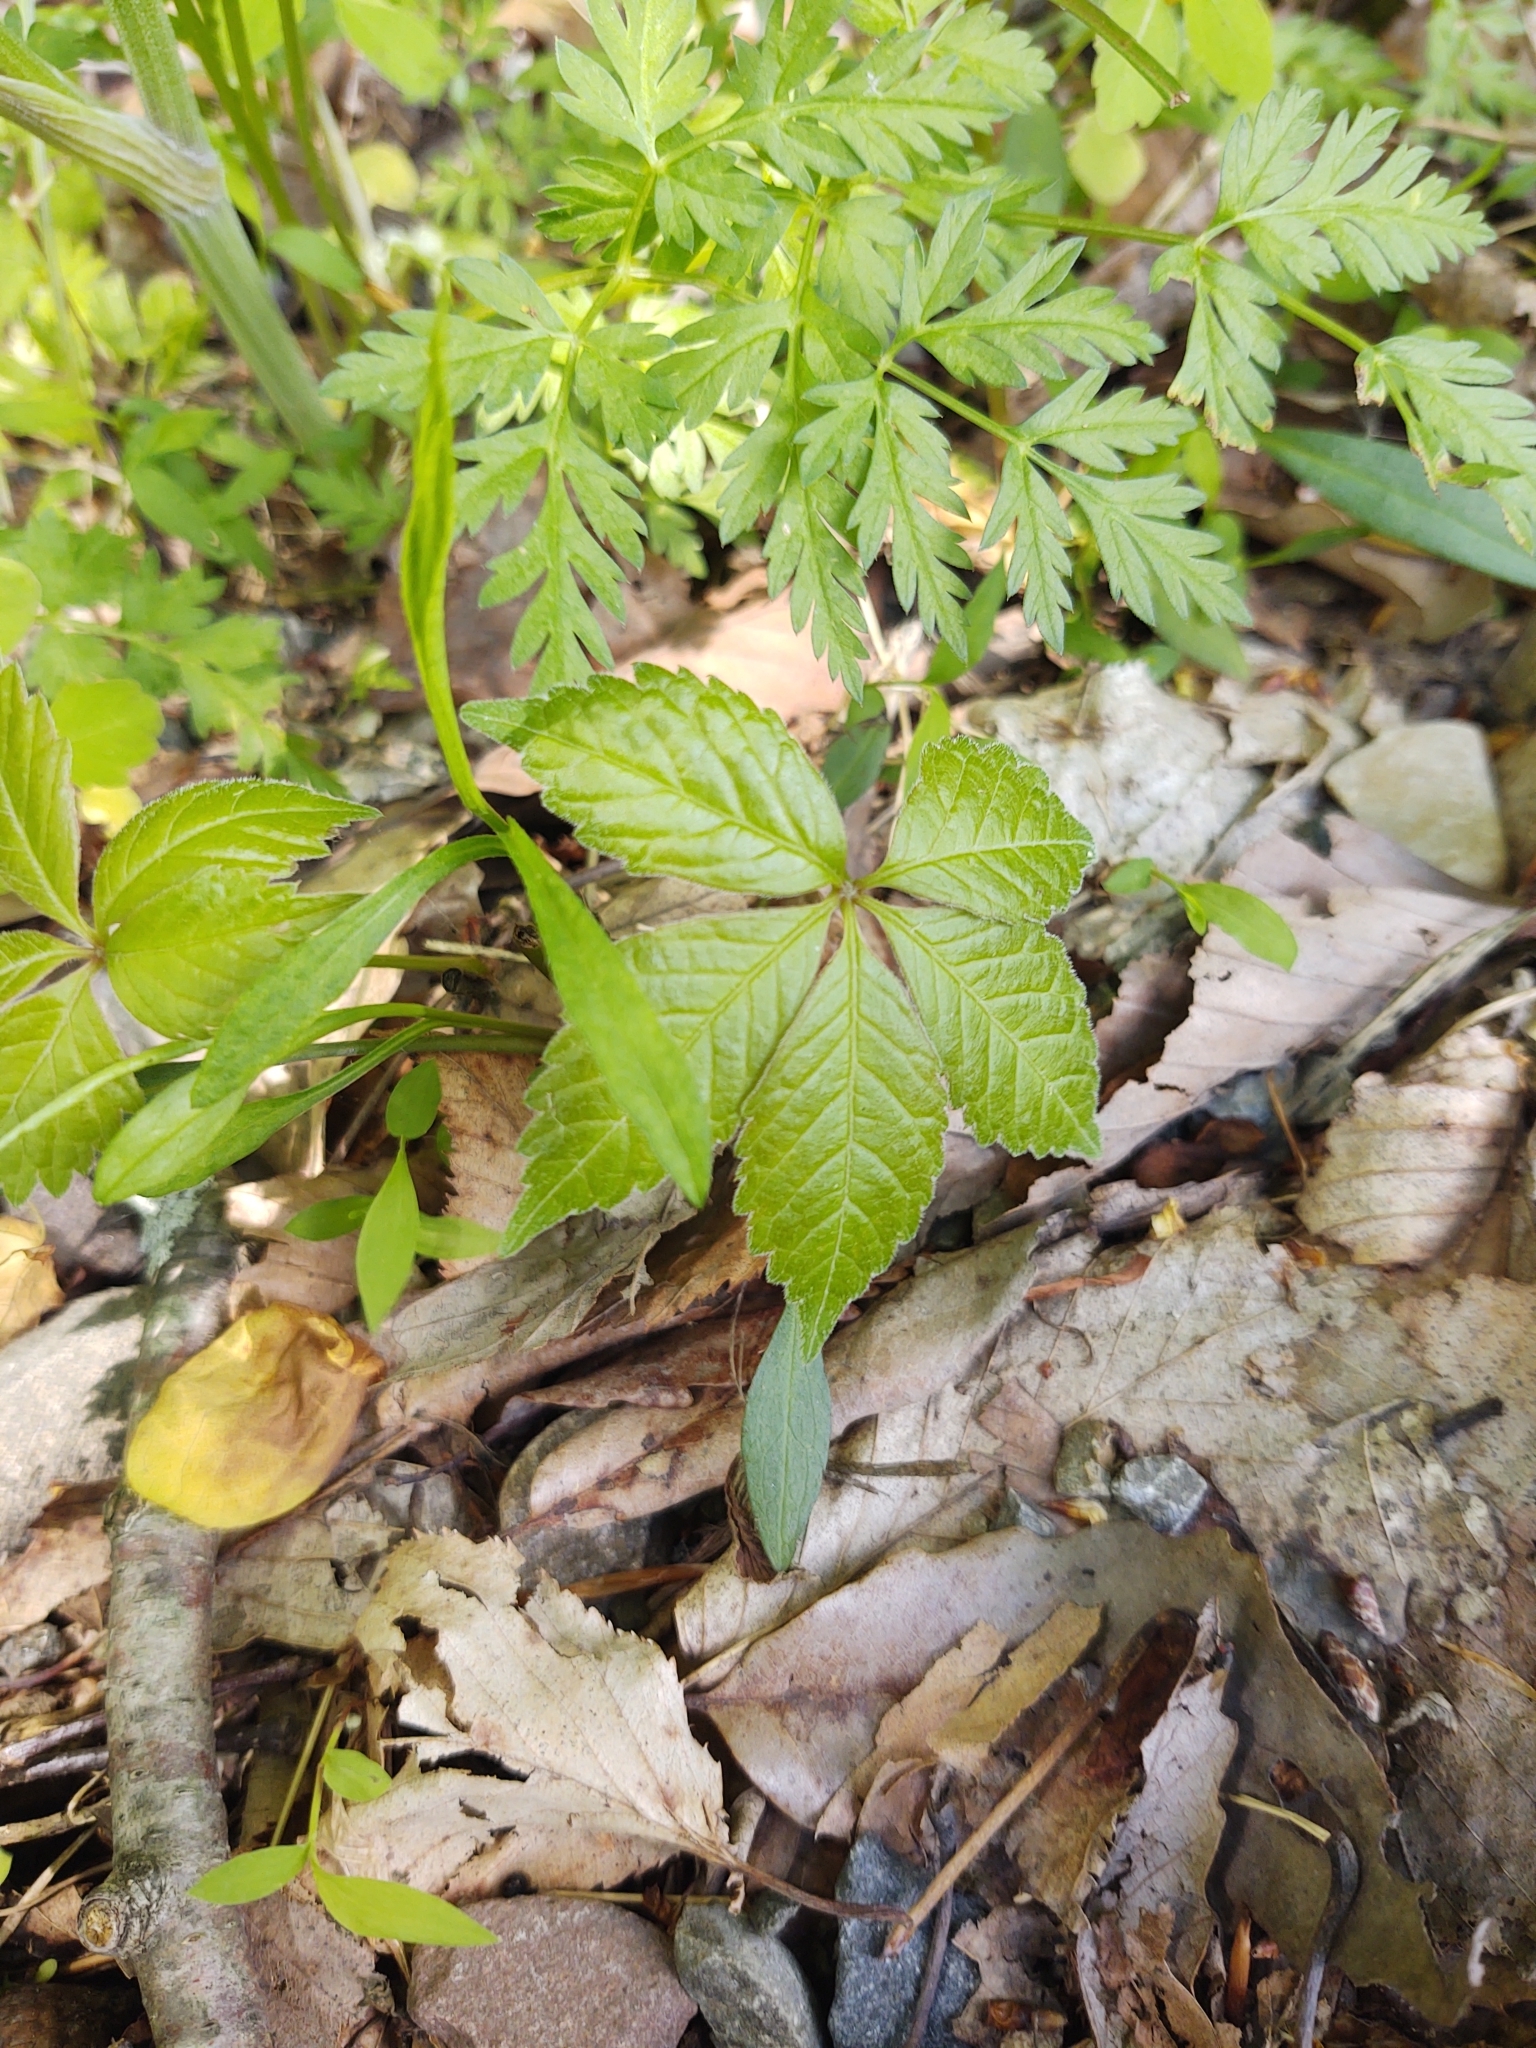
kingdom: Plantae
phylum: Tracheophyta
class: Magnoliopsida
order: Vitales
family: Vitaceae
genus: Parthenocissus
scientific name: Parthenocissus quinquefolia
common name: Virginia-creeper
